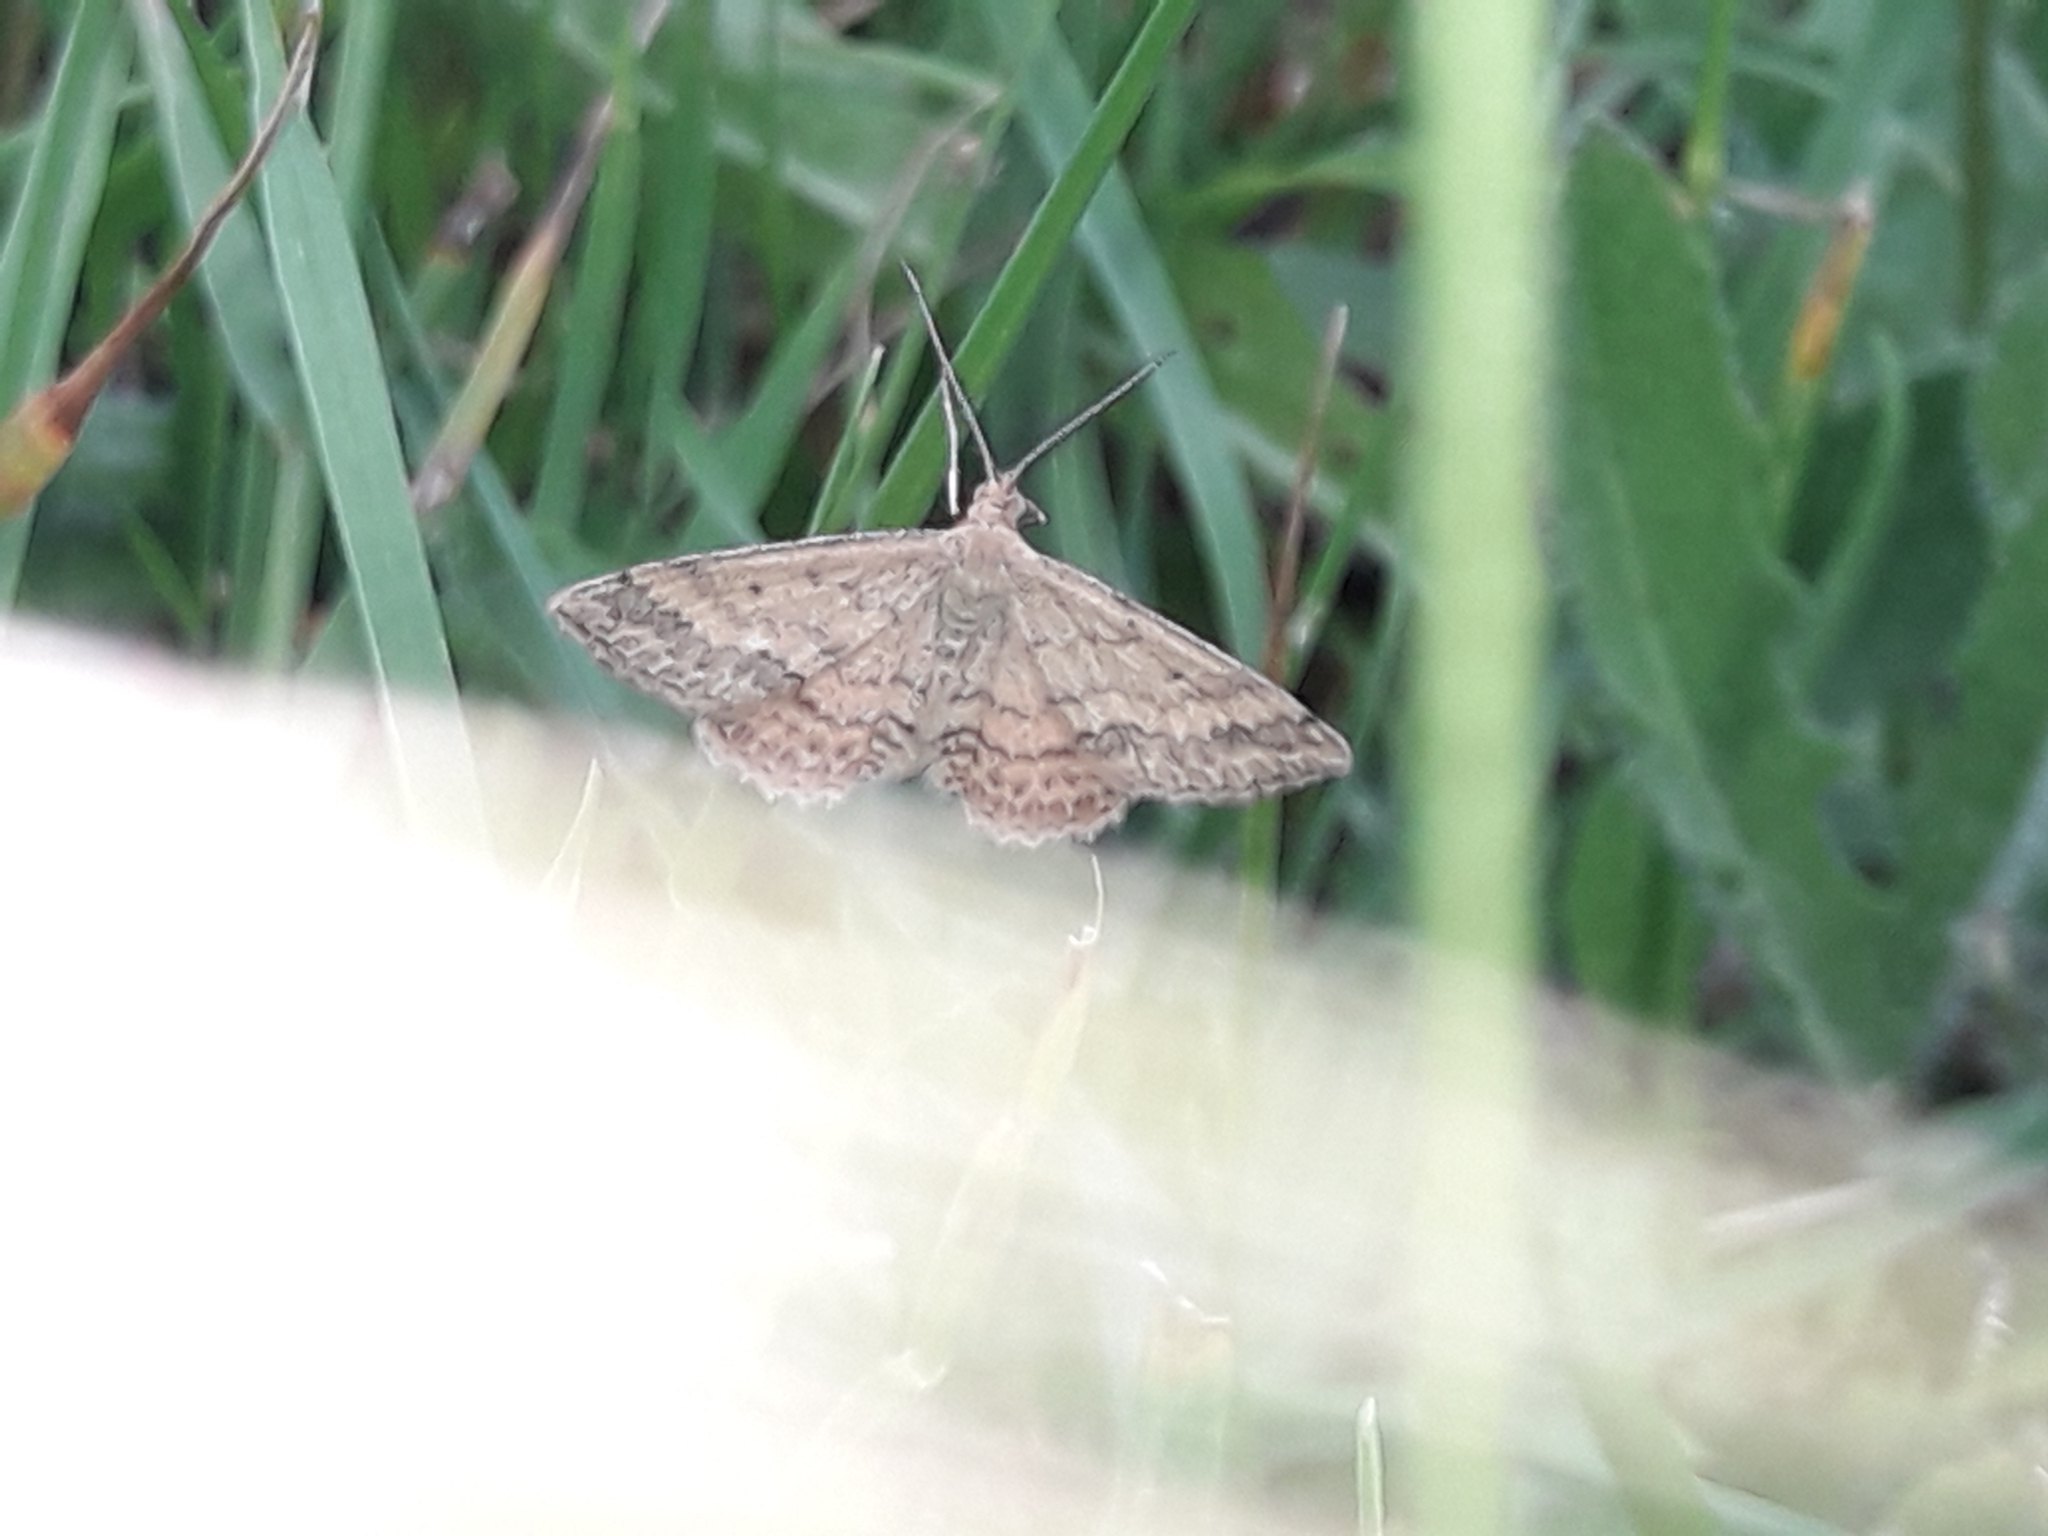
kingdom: Animalia
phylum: Arthropoda
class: Insecta
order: Lepidoptera
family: Geometridae
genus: Scopula
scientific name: Scopula rubraria
